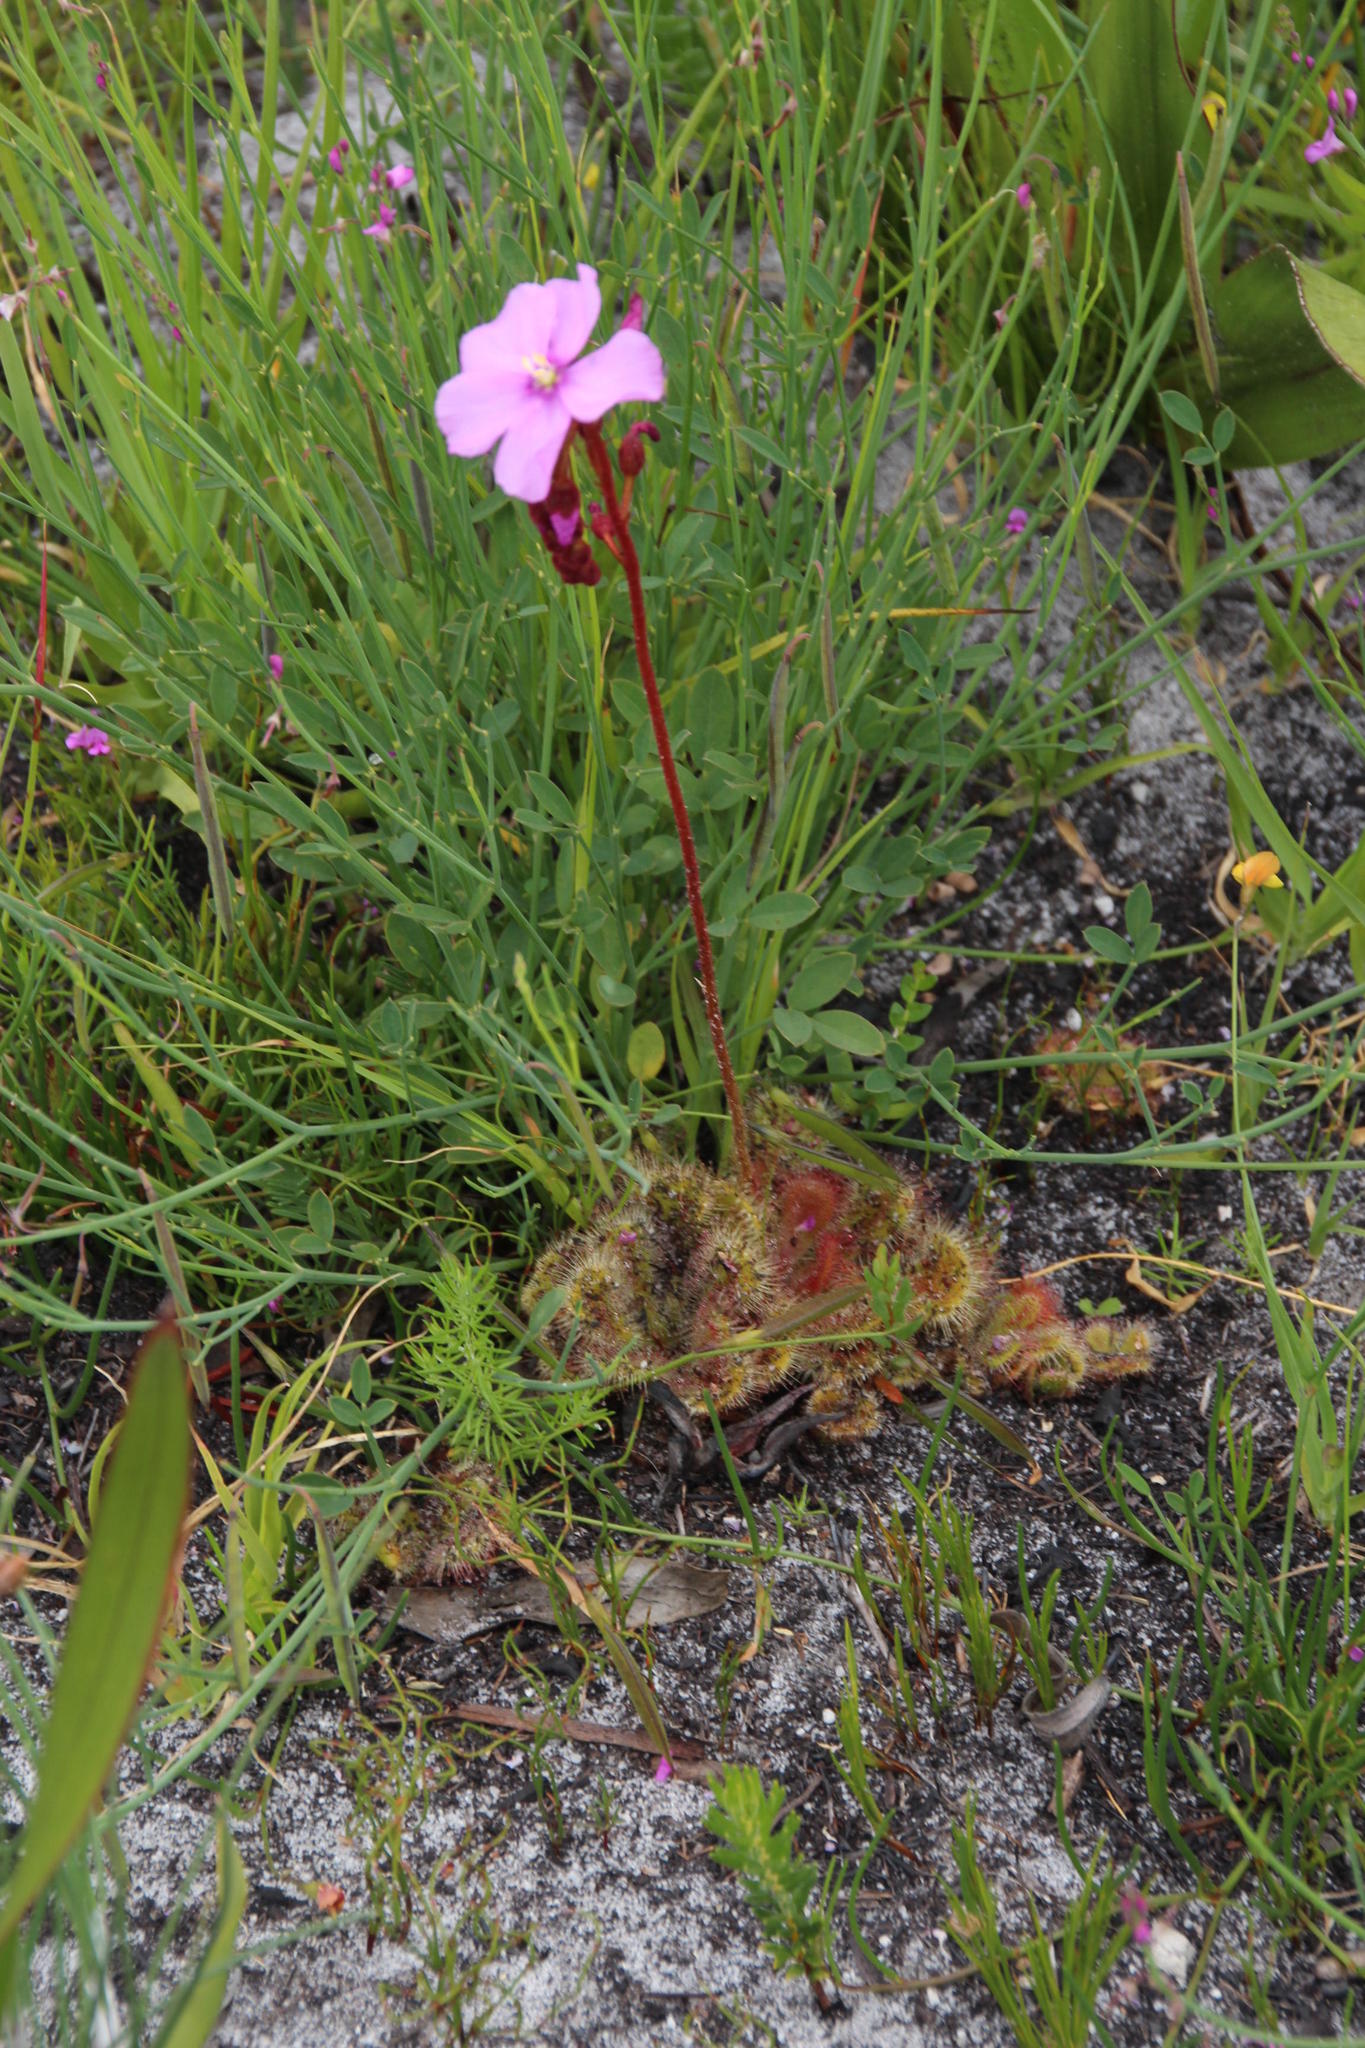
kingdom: Plantae
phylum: Tracheophyta
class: Magnoliopsida
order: Caryophyllales
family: Droseraceae
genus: Drosera
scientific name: Drosera cuneifolia
